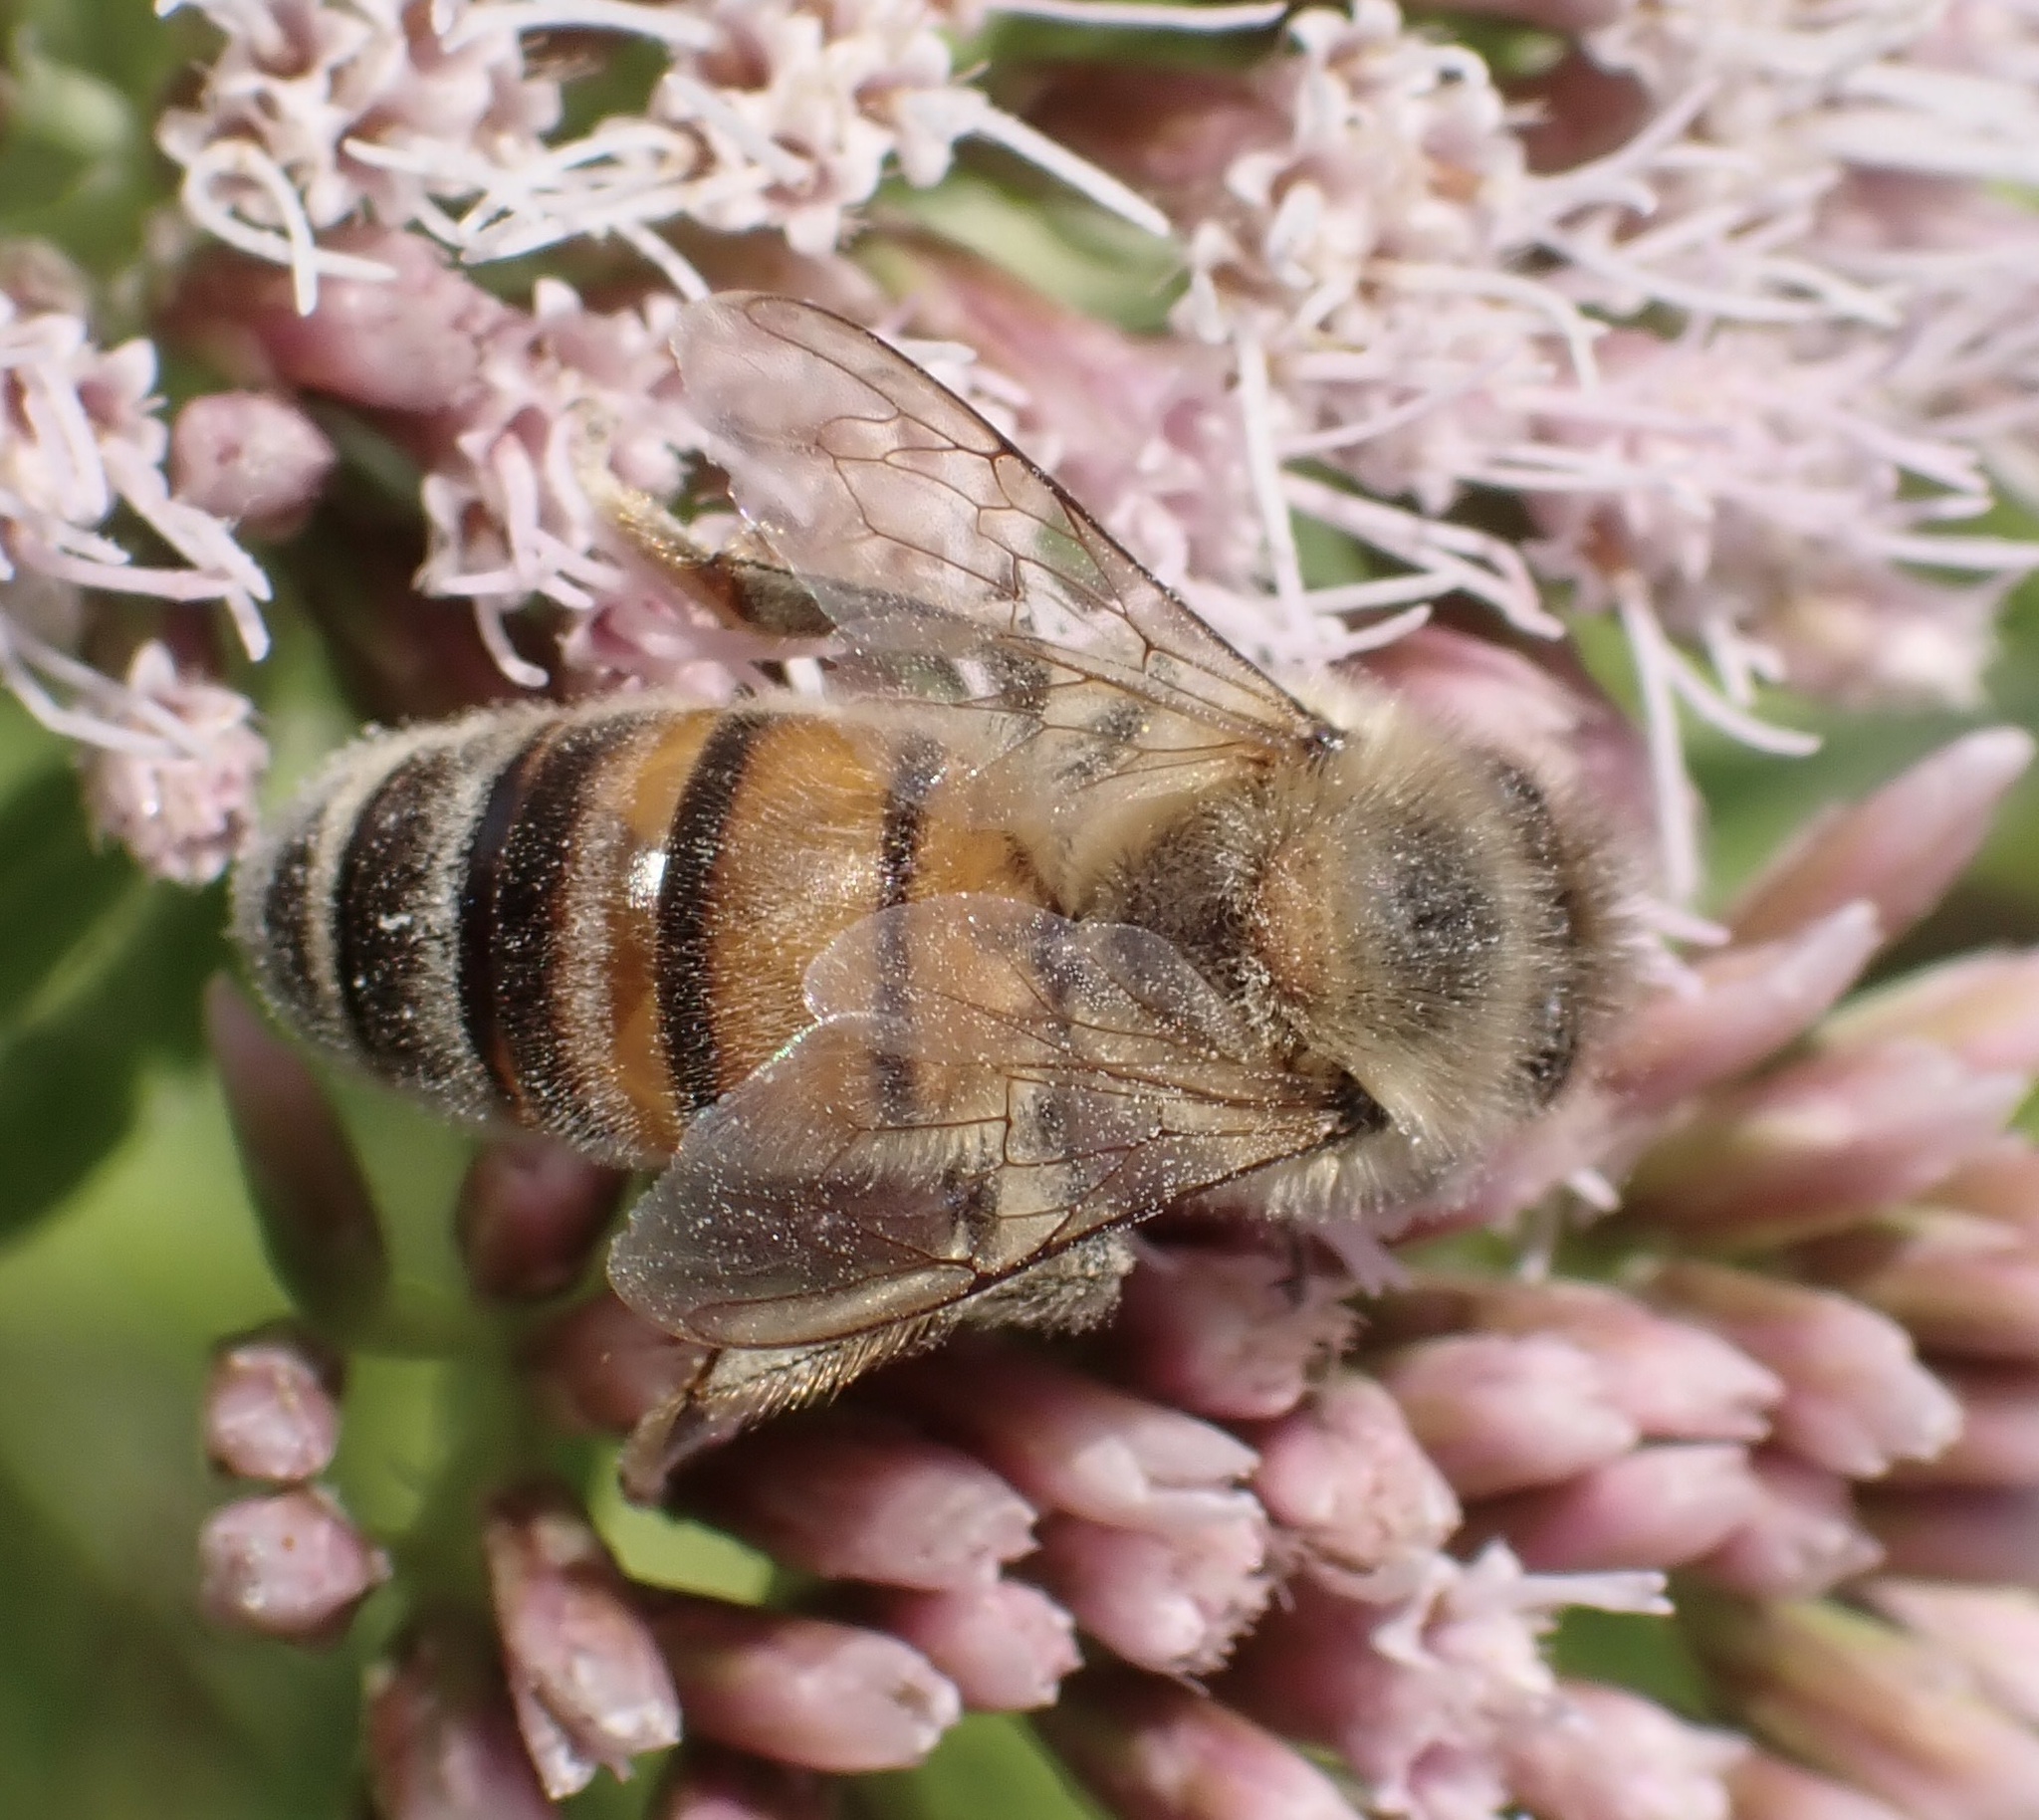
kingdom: Animalia
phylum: Arthropoda
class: Insecta
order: Hymenoptera
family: Apidae
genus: Apis
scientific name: Apis mellifera
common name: Honey bee
